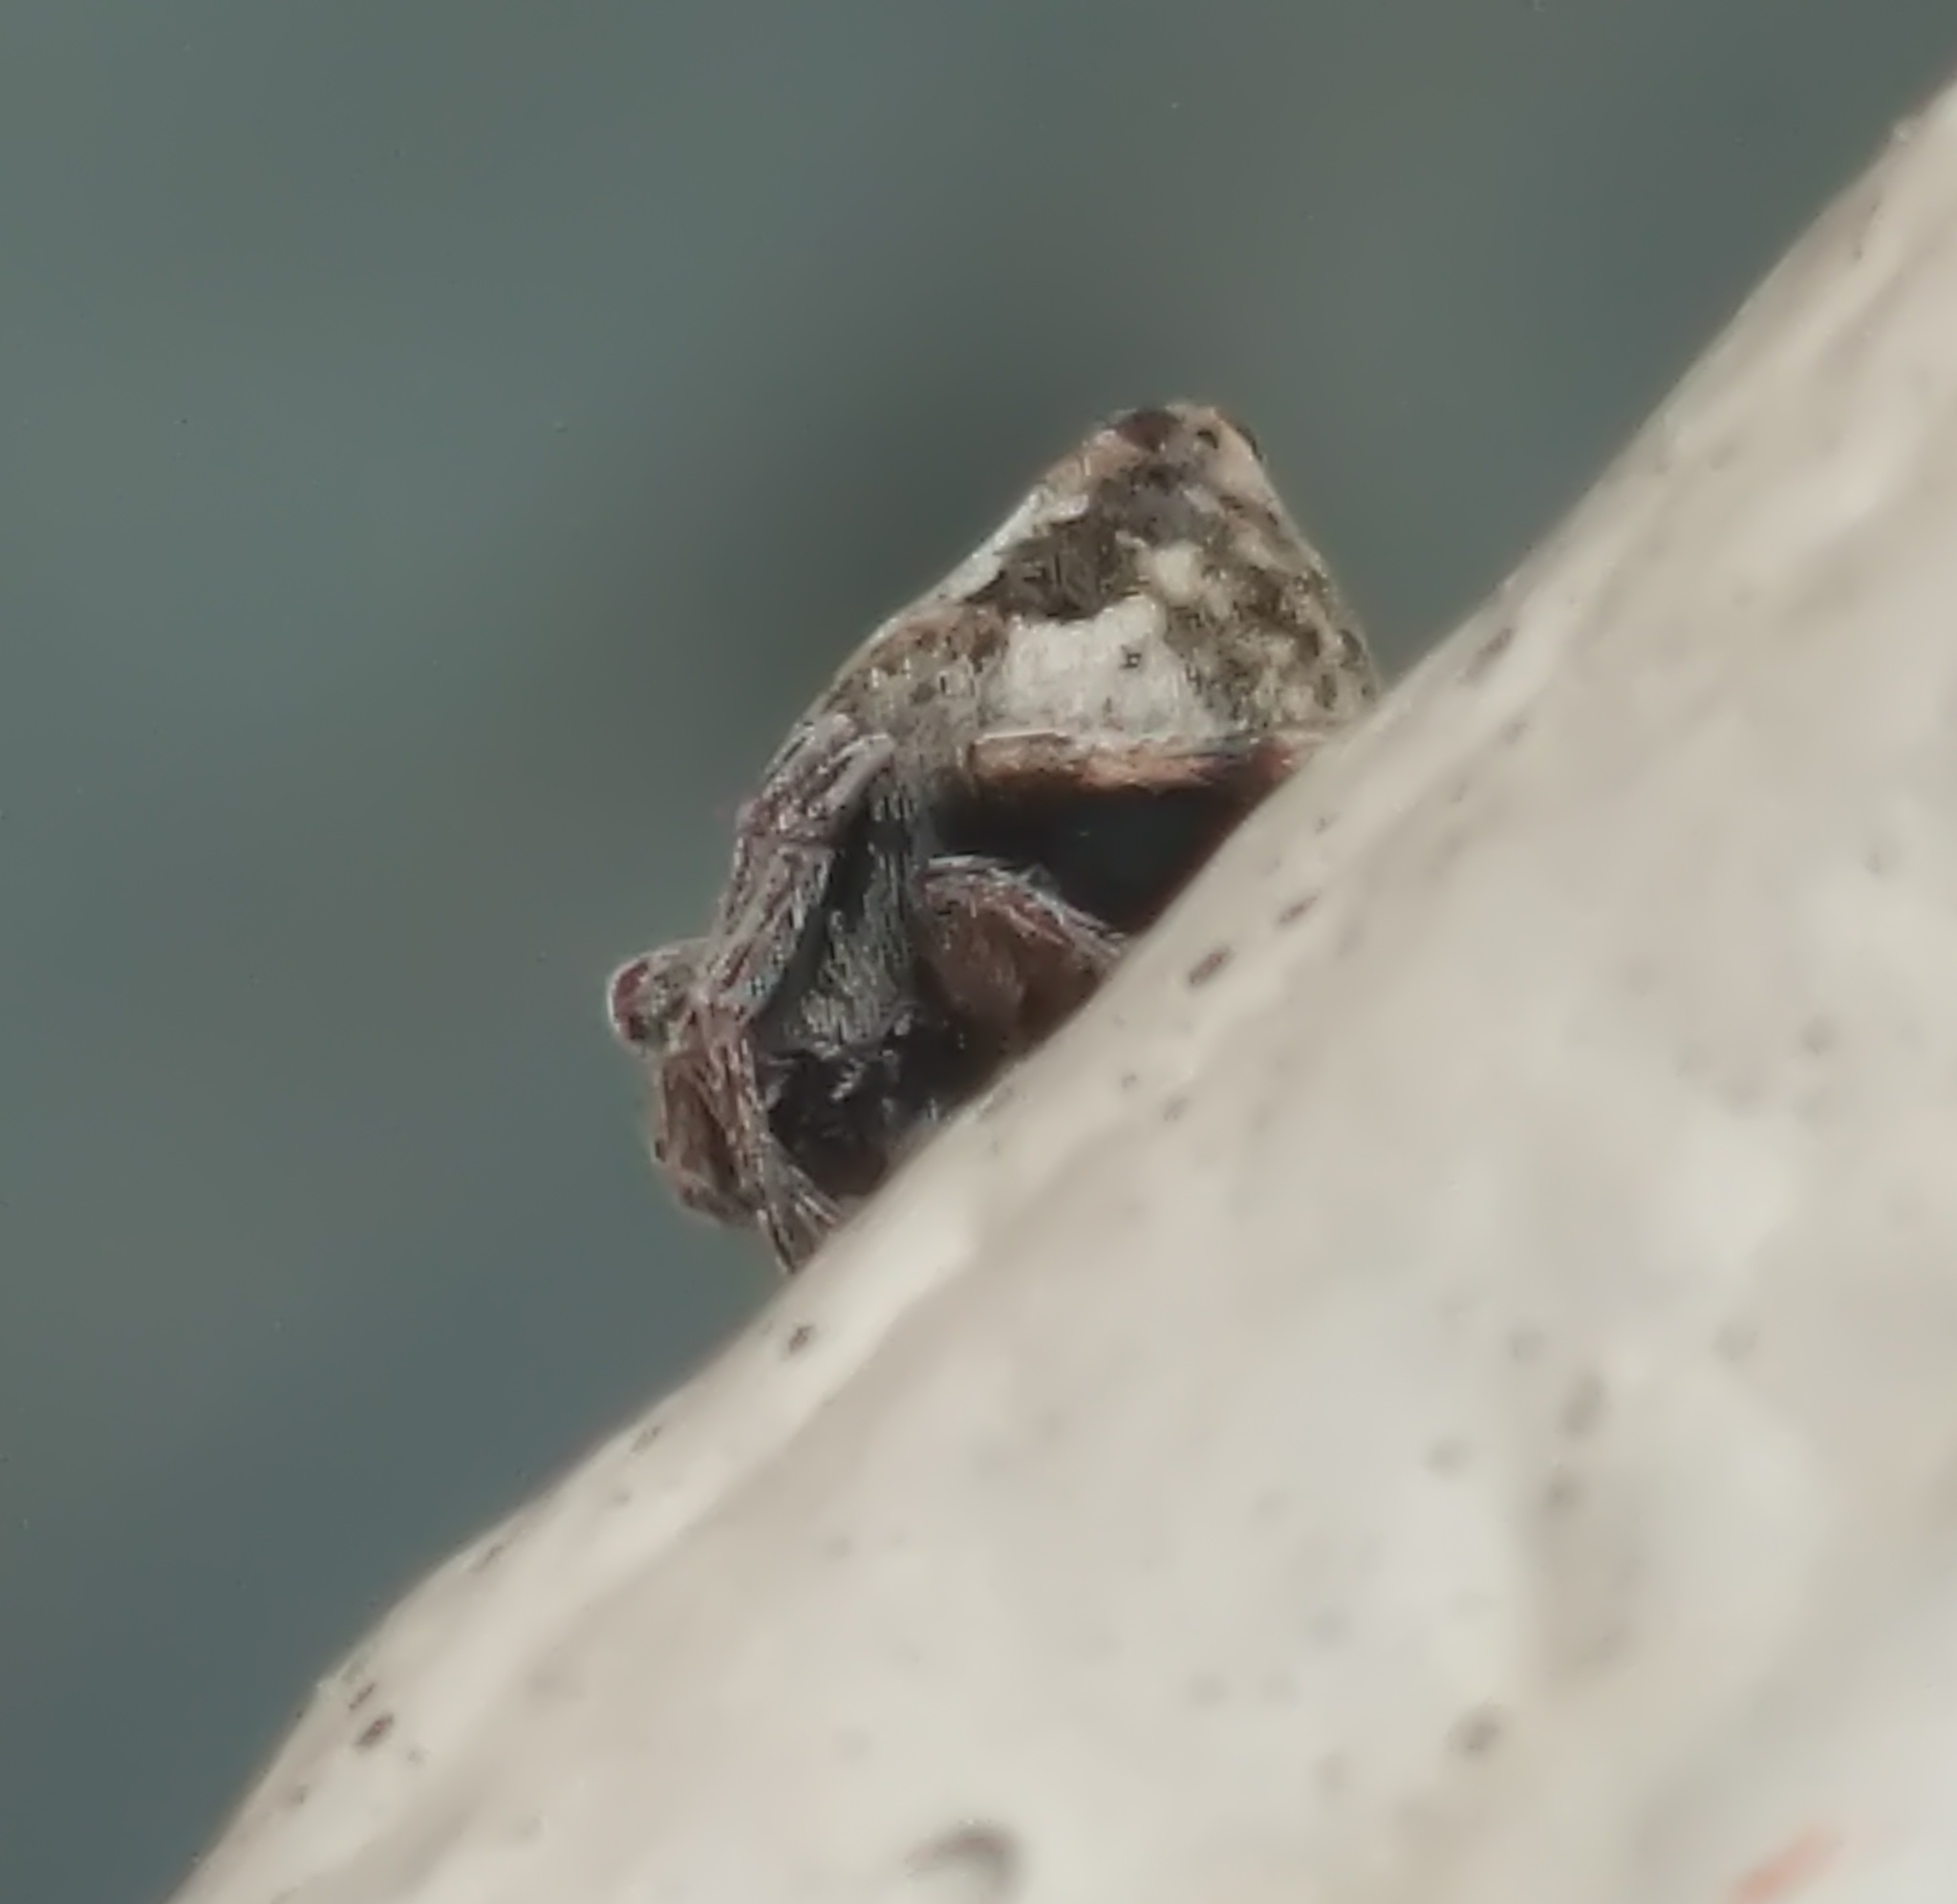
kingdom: Animalia
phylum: Arthropoda
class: Arachnida
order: Araneae
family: Araneidae
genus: Eriovixia
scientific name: Eriovixia excelsa
